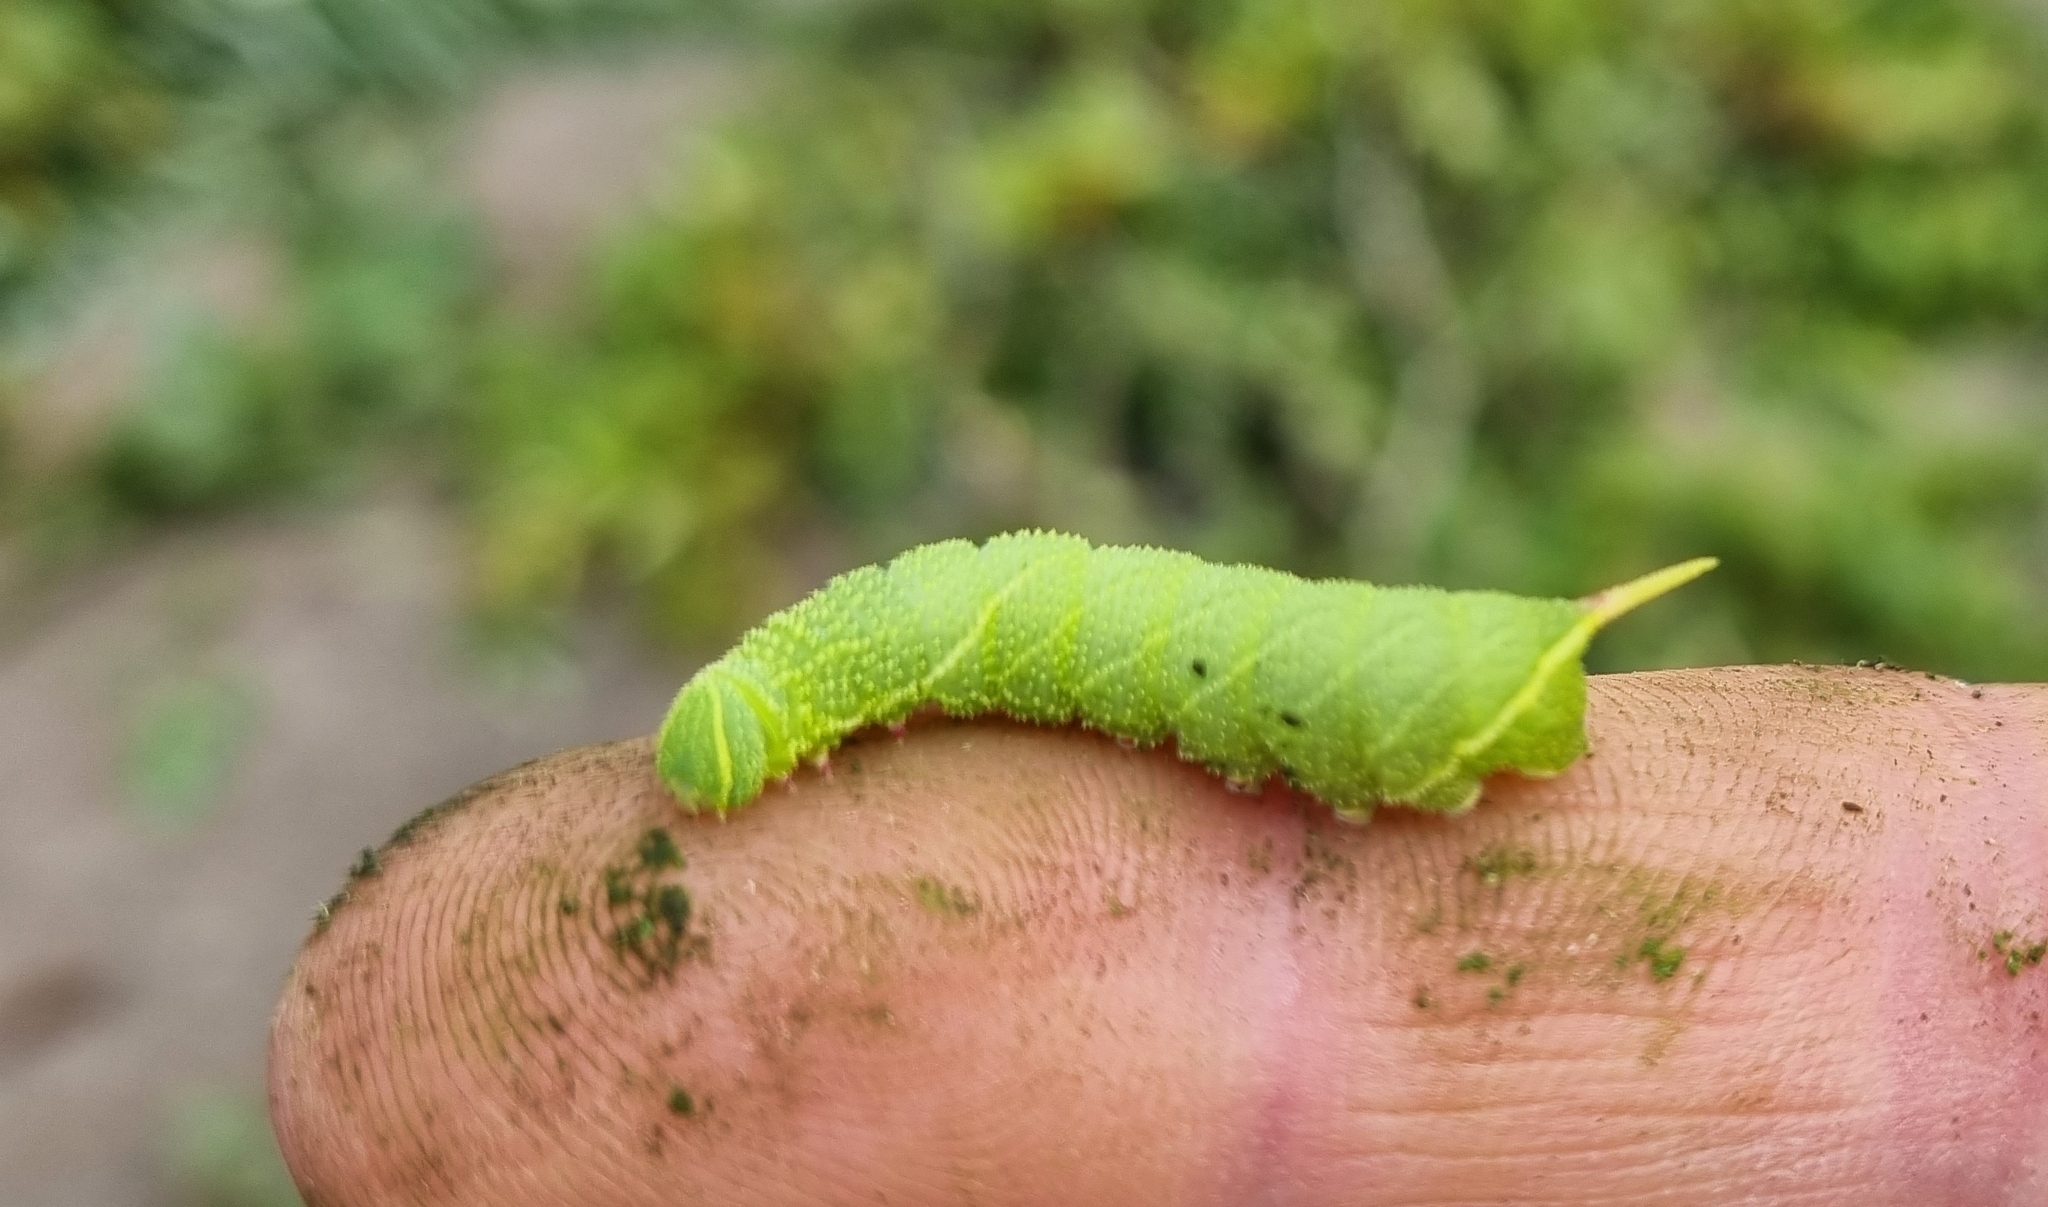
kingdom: Animalia
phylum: Arthropoda
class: Insecta
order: Lepidoptera
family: Sphingidae
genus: Laothoe
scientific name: Laothoe populi
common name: Poplar hawk-moth
